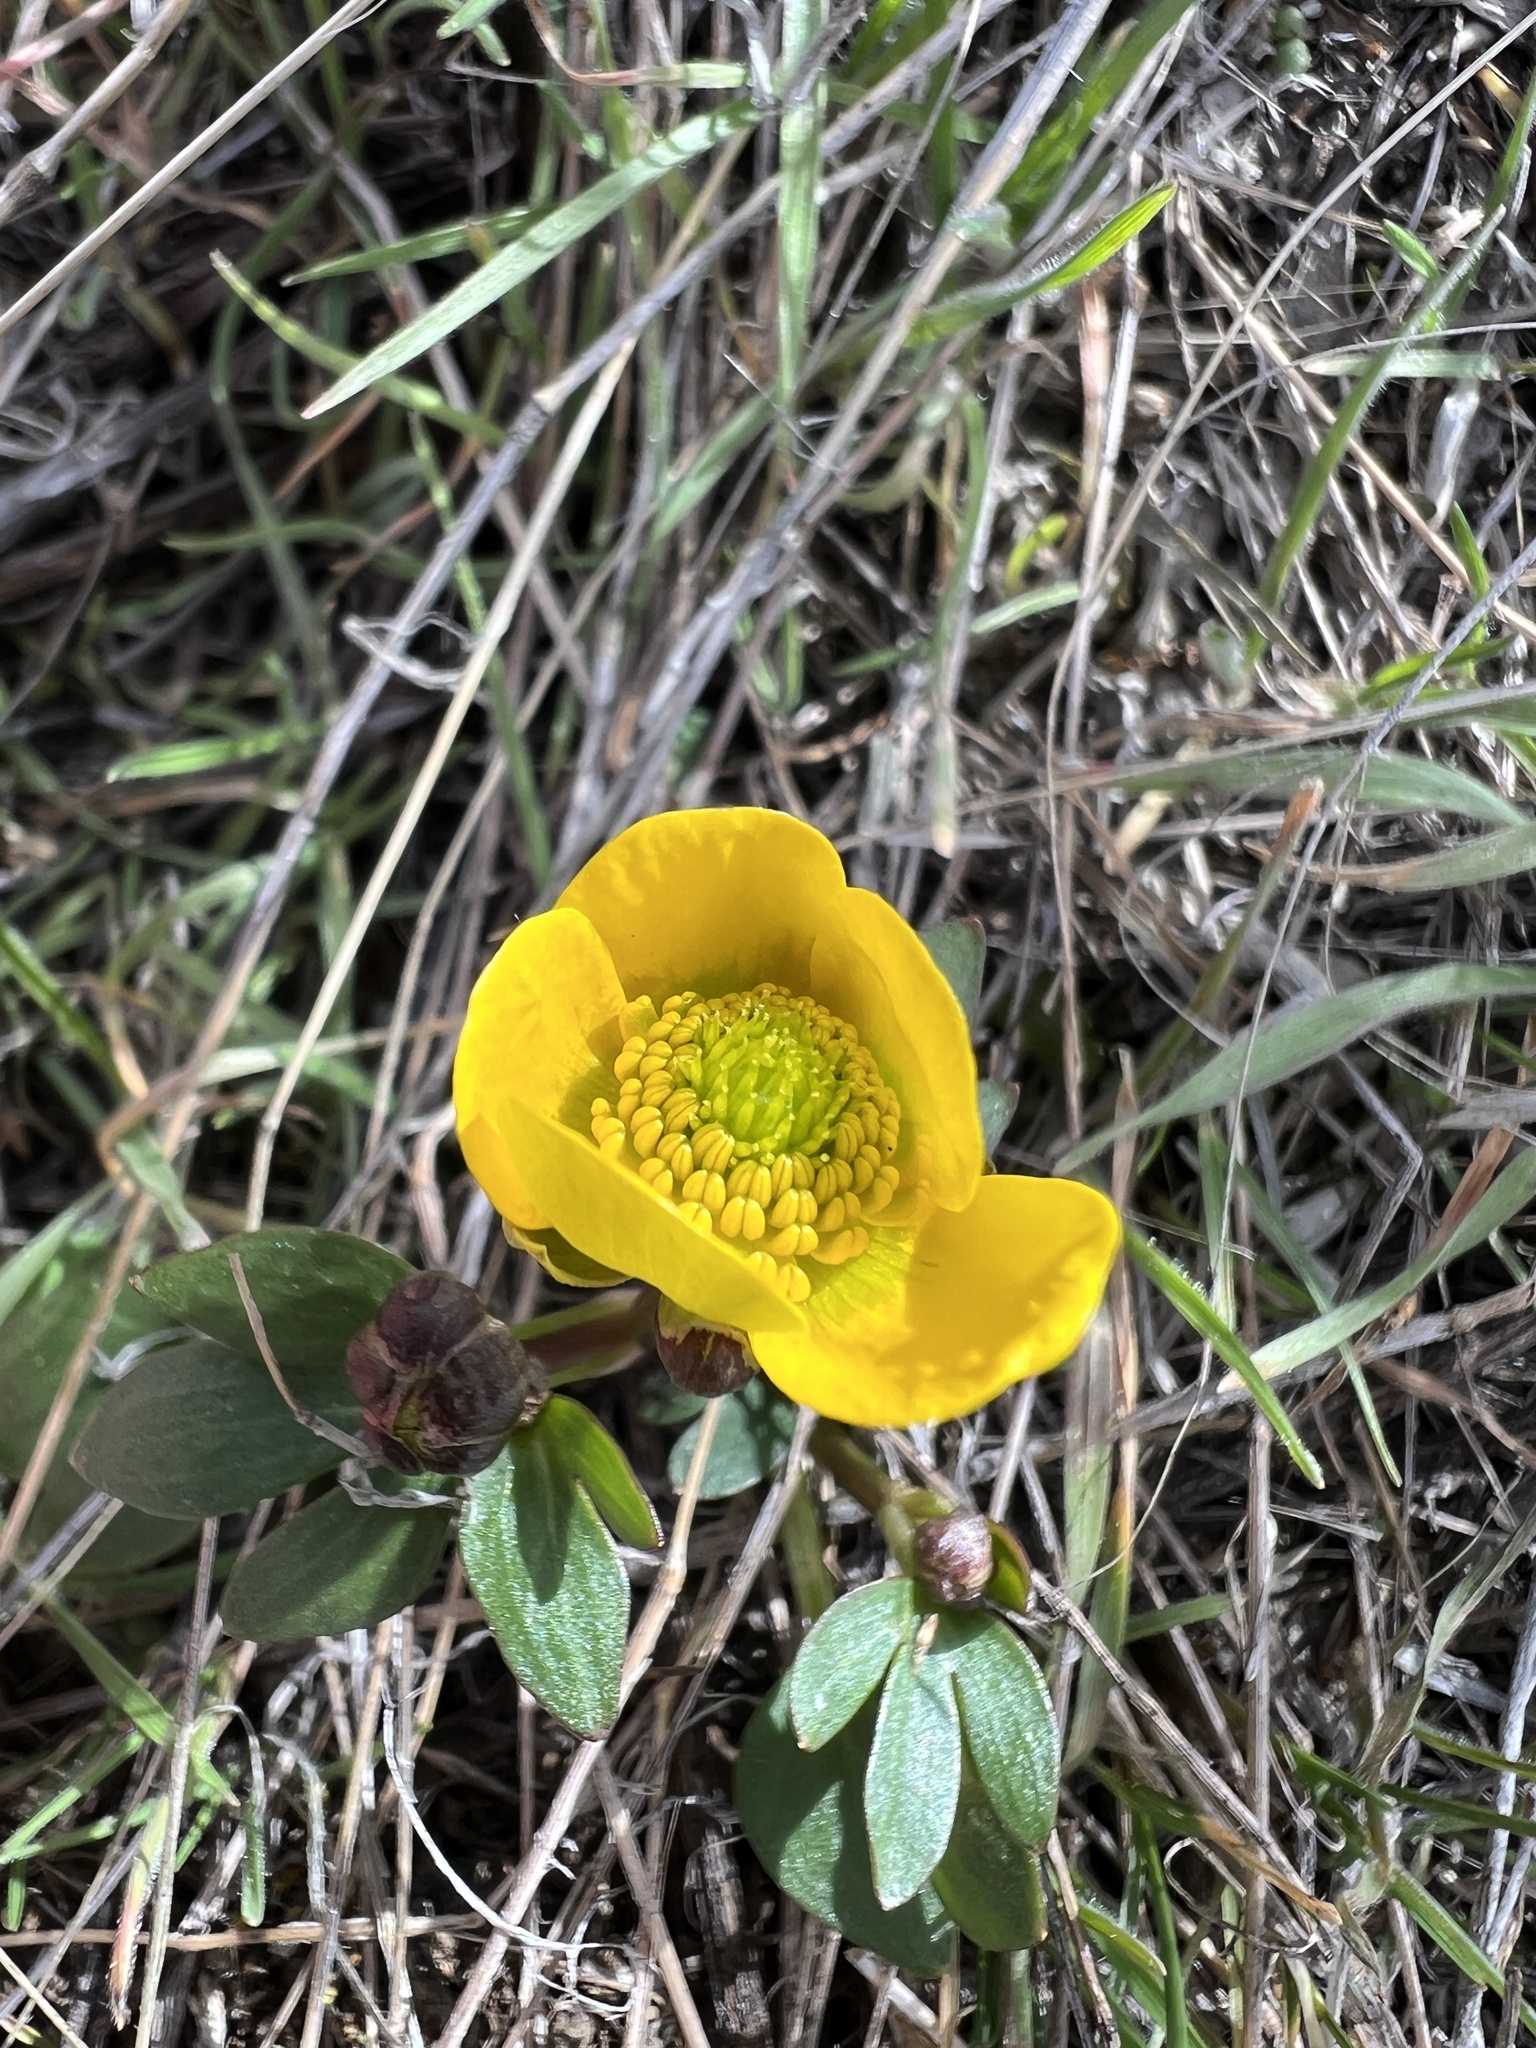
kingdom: Plantae
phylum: Tracheophyta
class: Magnoliopsida
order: Ranunculales
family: Ranunculaceae
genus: Ranunculus
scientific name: Ranunculus glaberrimus
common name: Sagebrush buttercup
